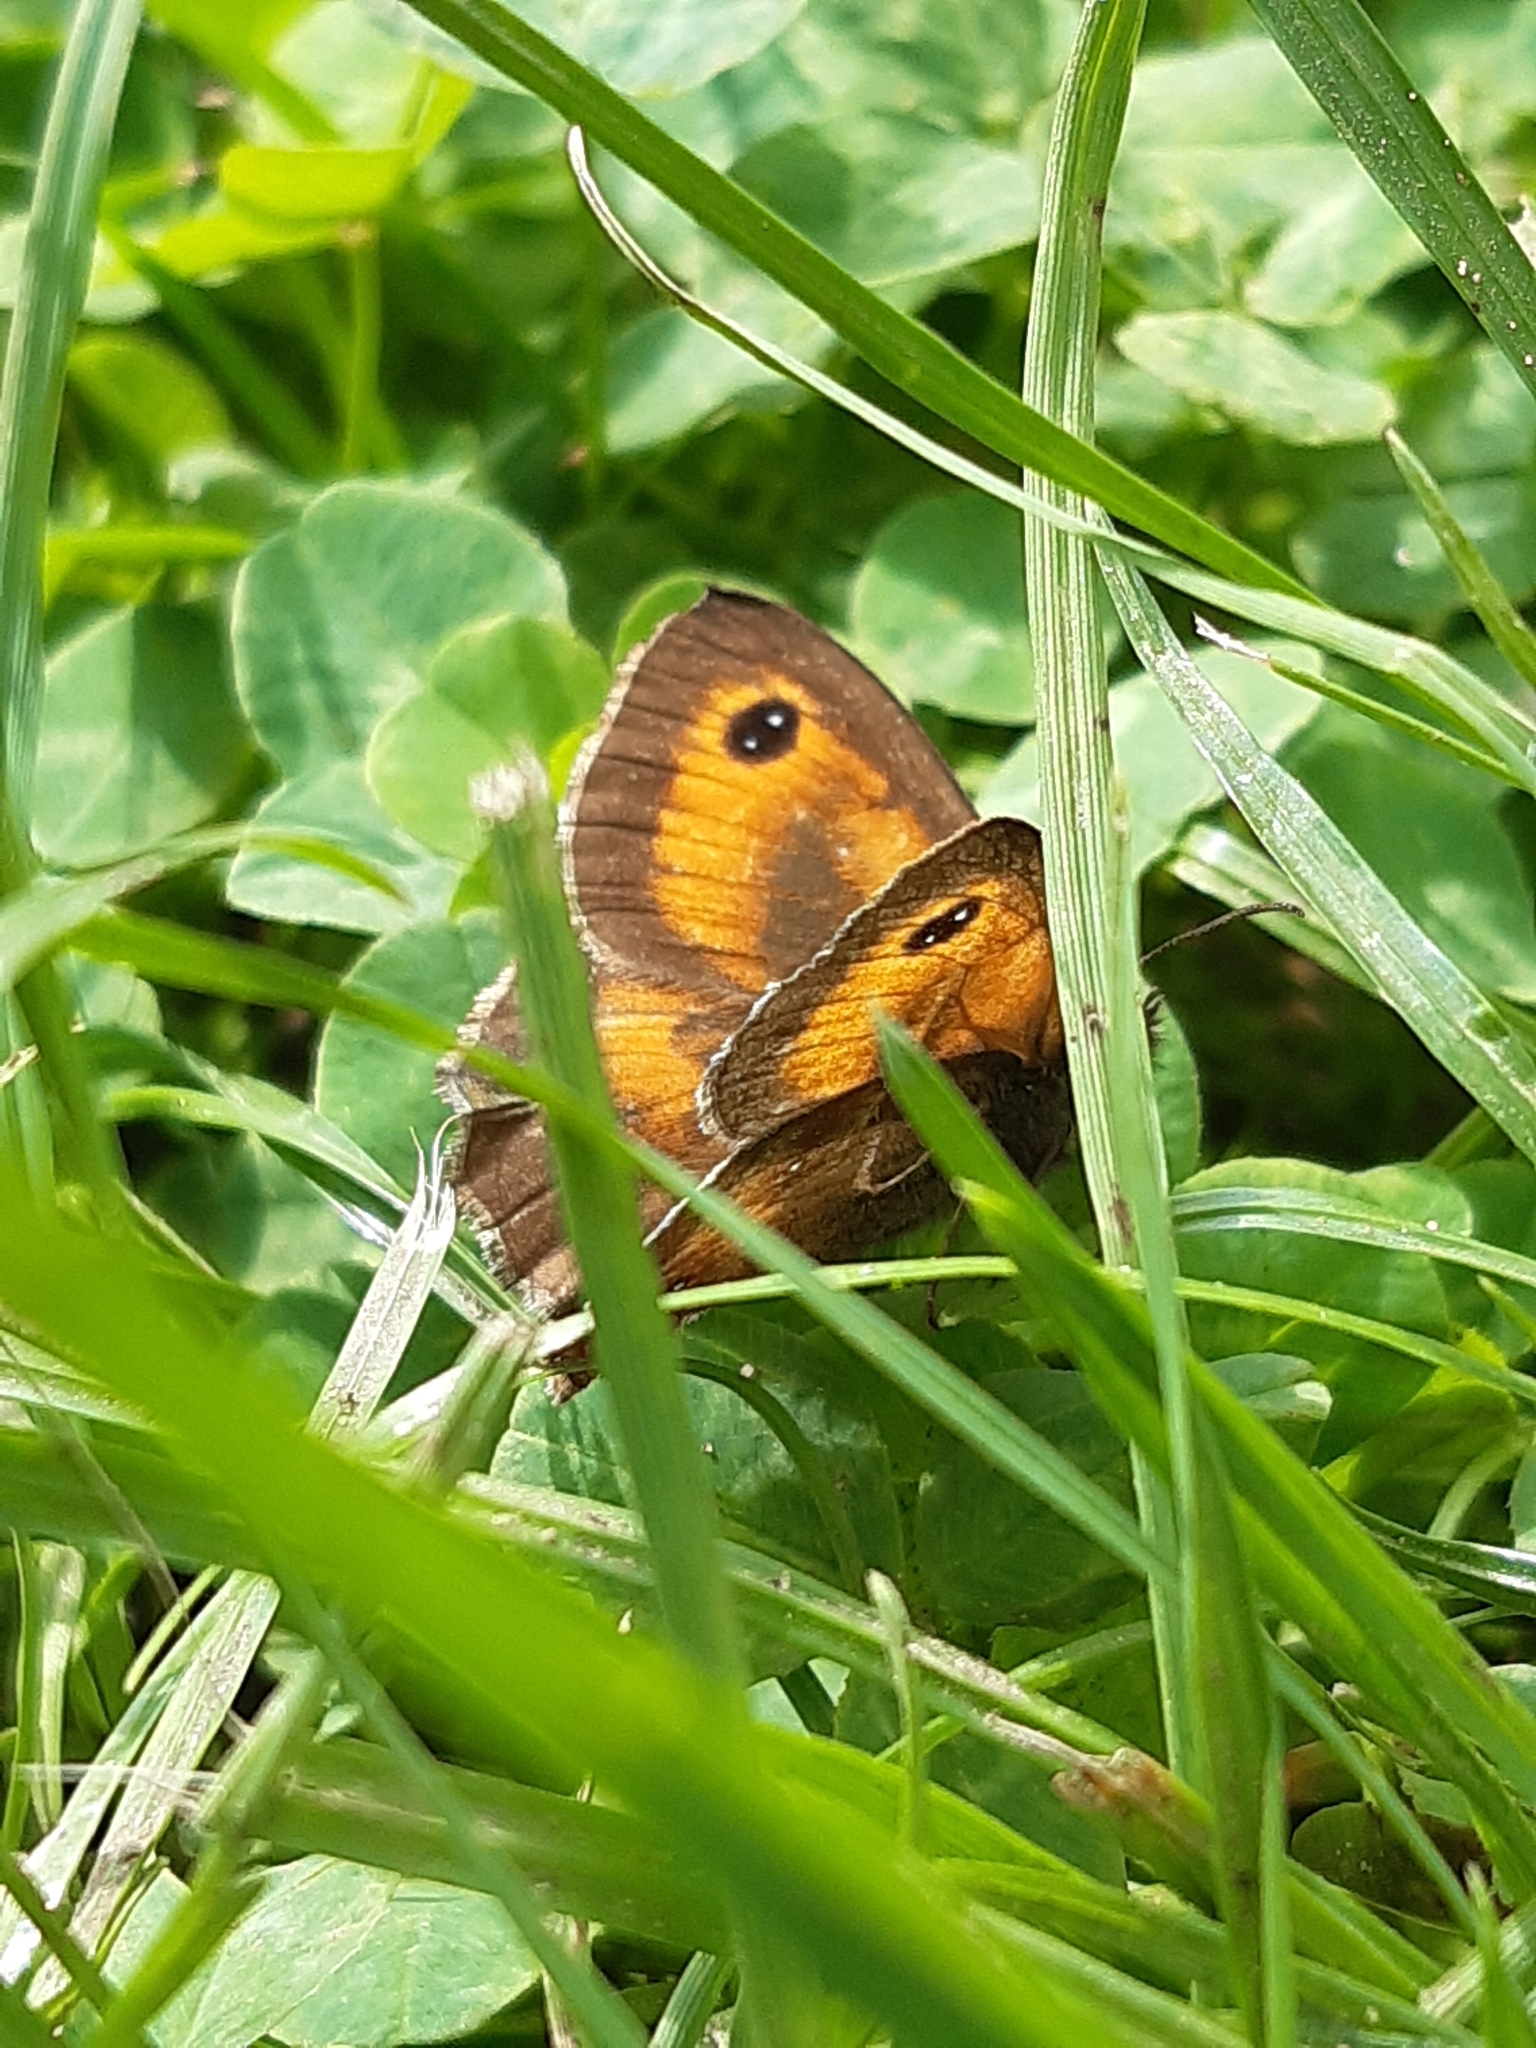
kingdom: Animalia
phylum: Arthropoda
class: Insecta
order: Lepidoptera
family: Nymphalidae
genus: Pyronia
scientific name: Pyronia tithonus
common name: Gatekeeper
